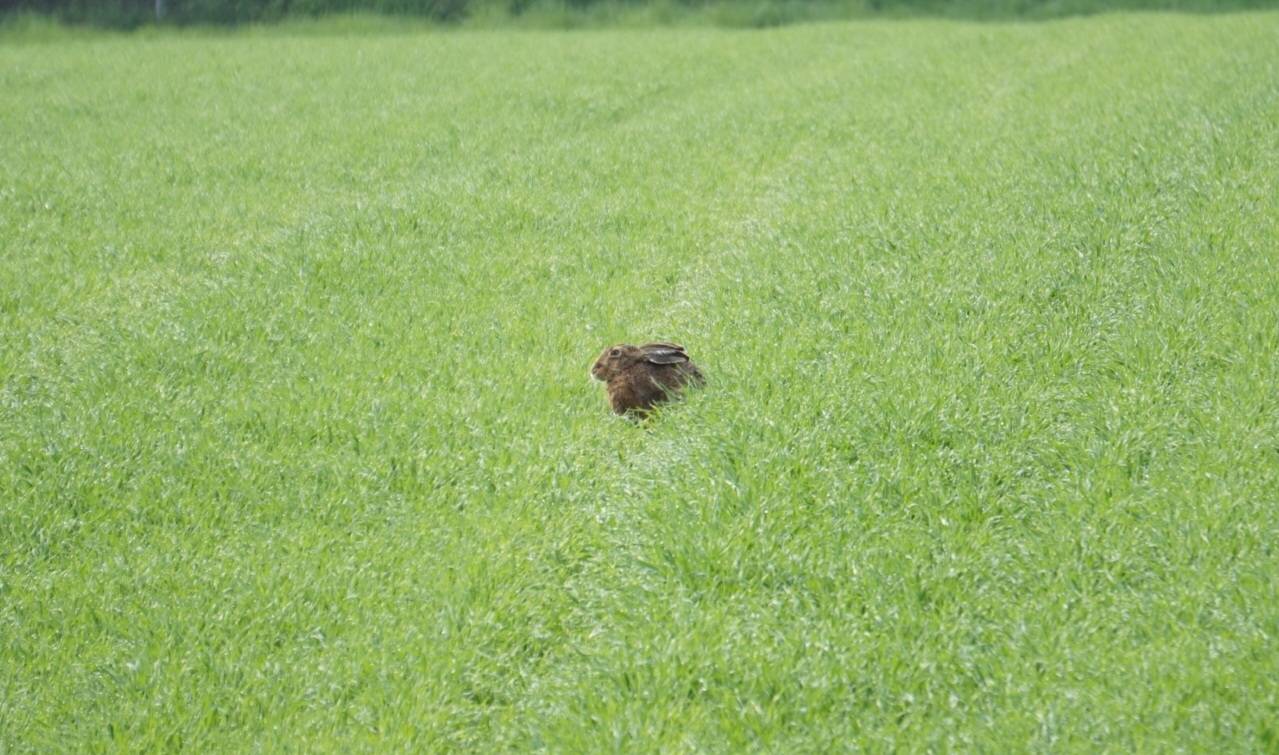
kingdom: Animalia
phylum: Chordata
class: Mammalia
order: Lagomorpha
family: Leporidae
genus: Lepus
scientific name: Lepus europaeus
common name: European hare
